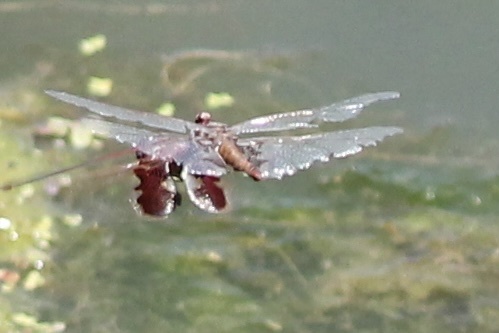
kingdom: Animalia
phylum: Arthropoda
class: Insecta
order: Odonata
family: Libellulidae
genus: Tramea
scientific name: Tramea onusta
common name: Red saddlebags
